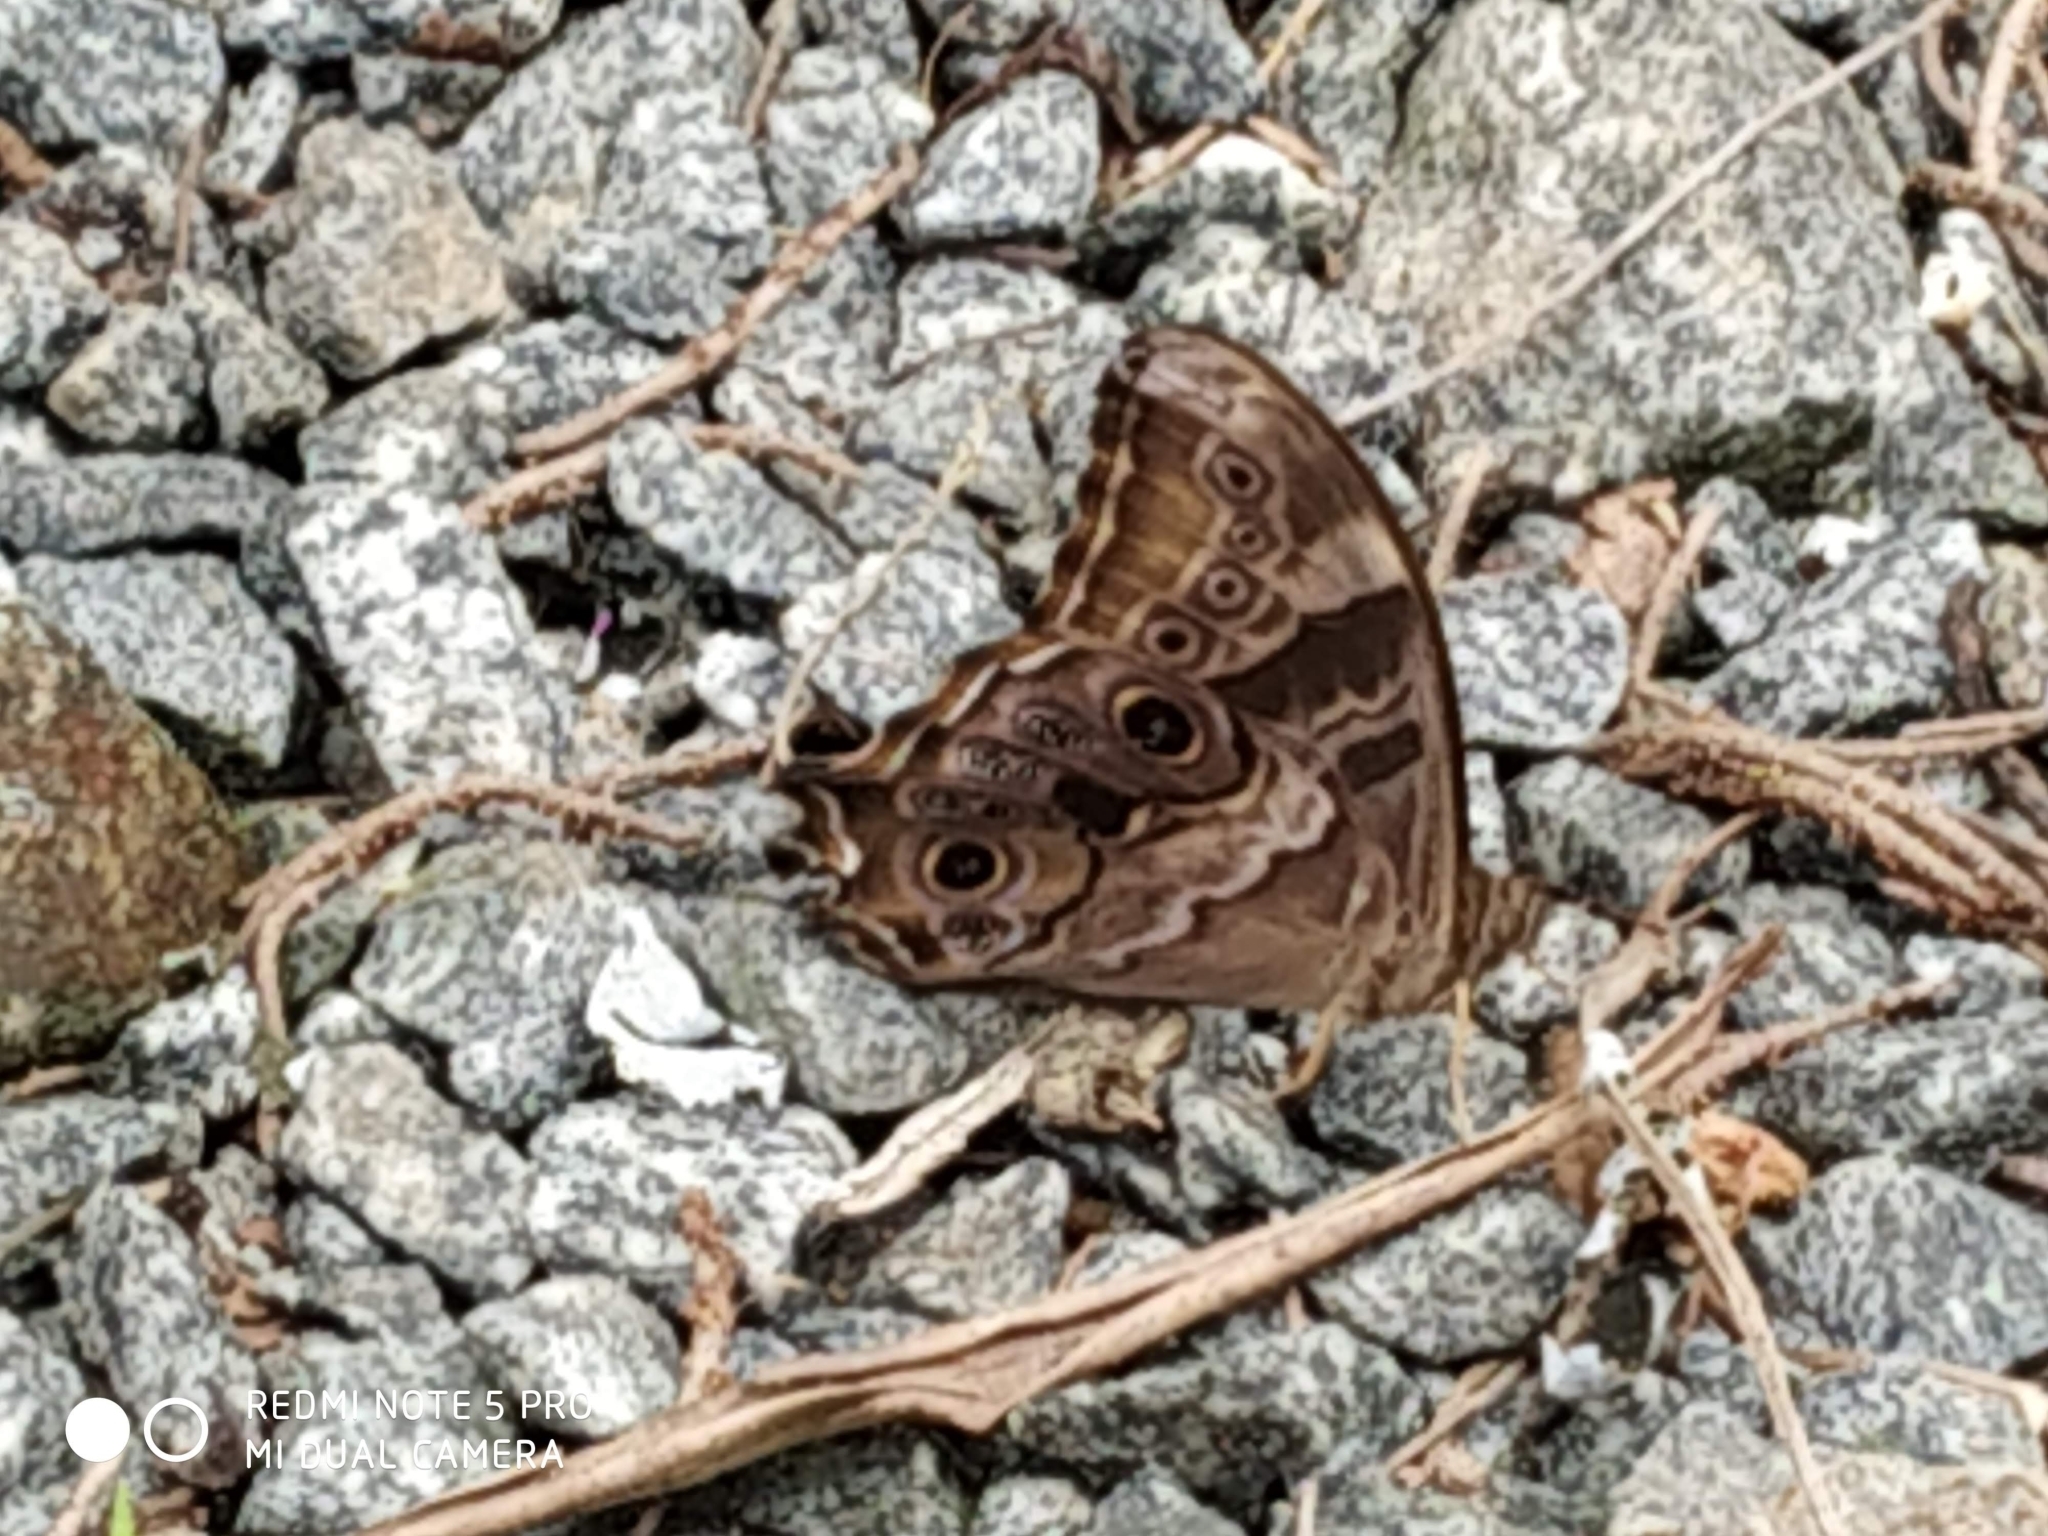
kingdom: Animalia
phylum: Arthropoda
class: Insecta
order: Lepidoptera
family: Nymphalidae
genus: Lethe
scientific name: Lethe drypetis
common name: Tamil treebrown
